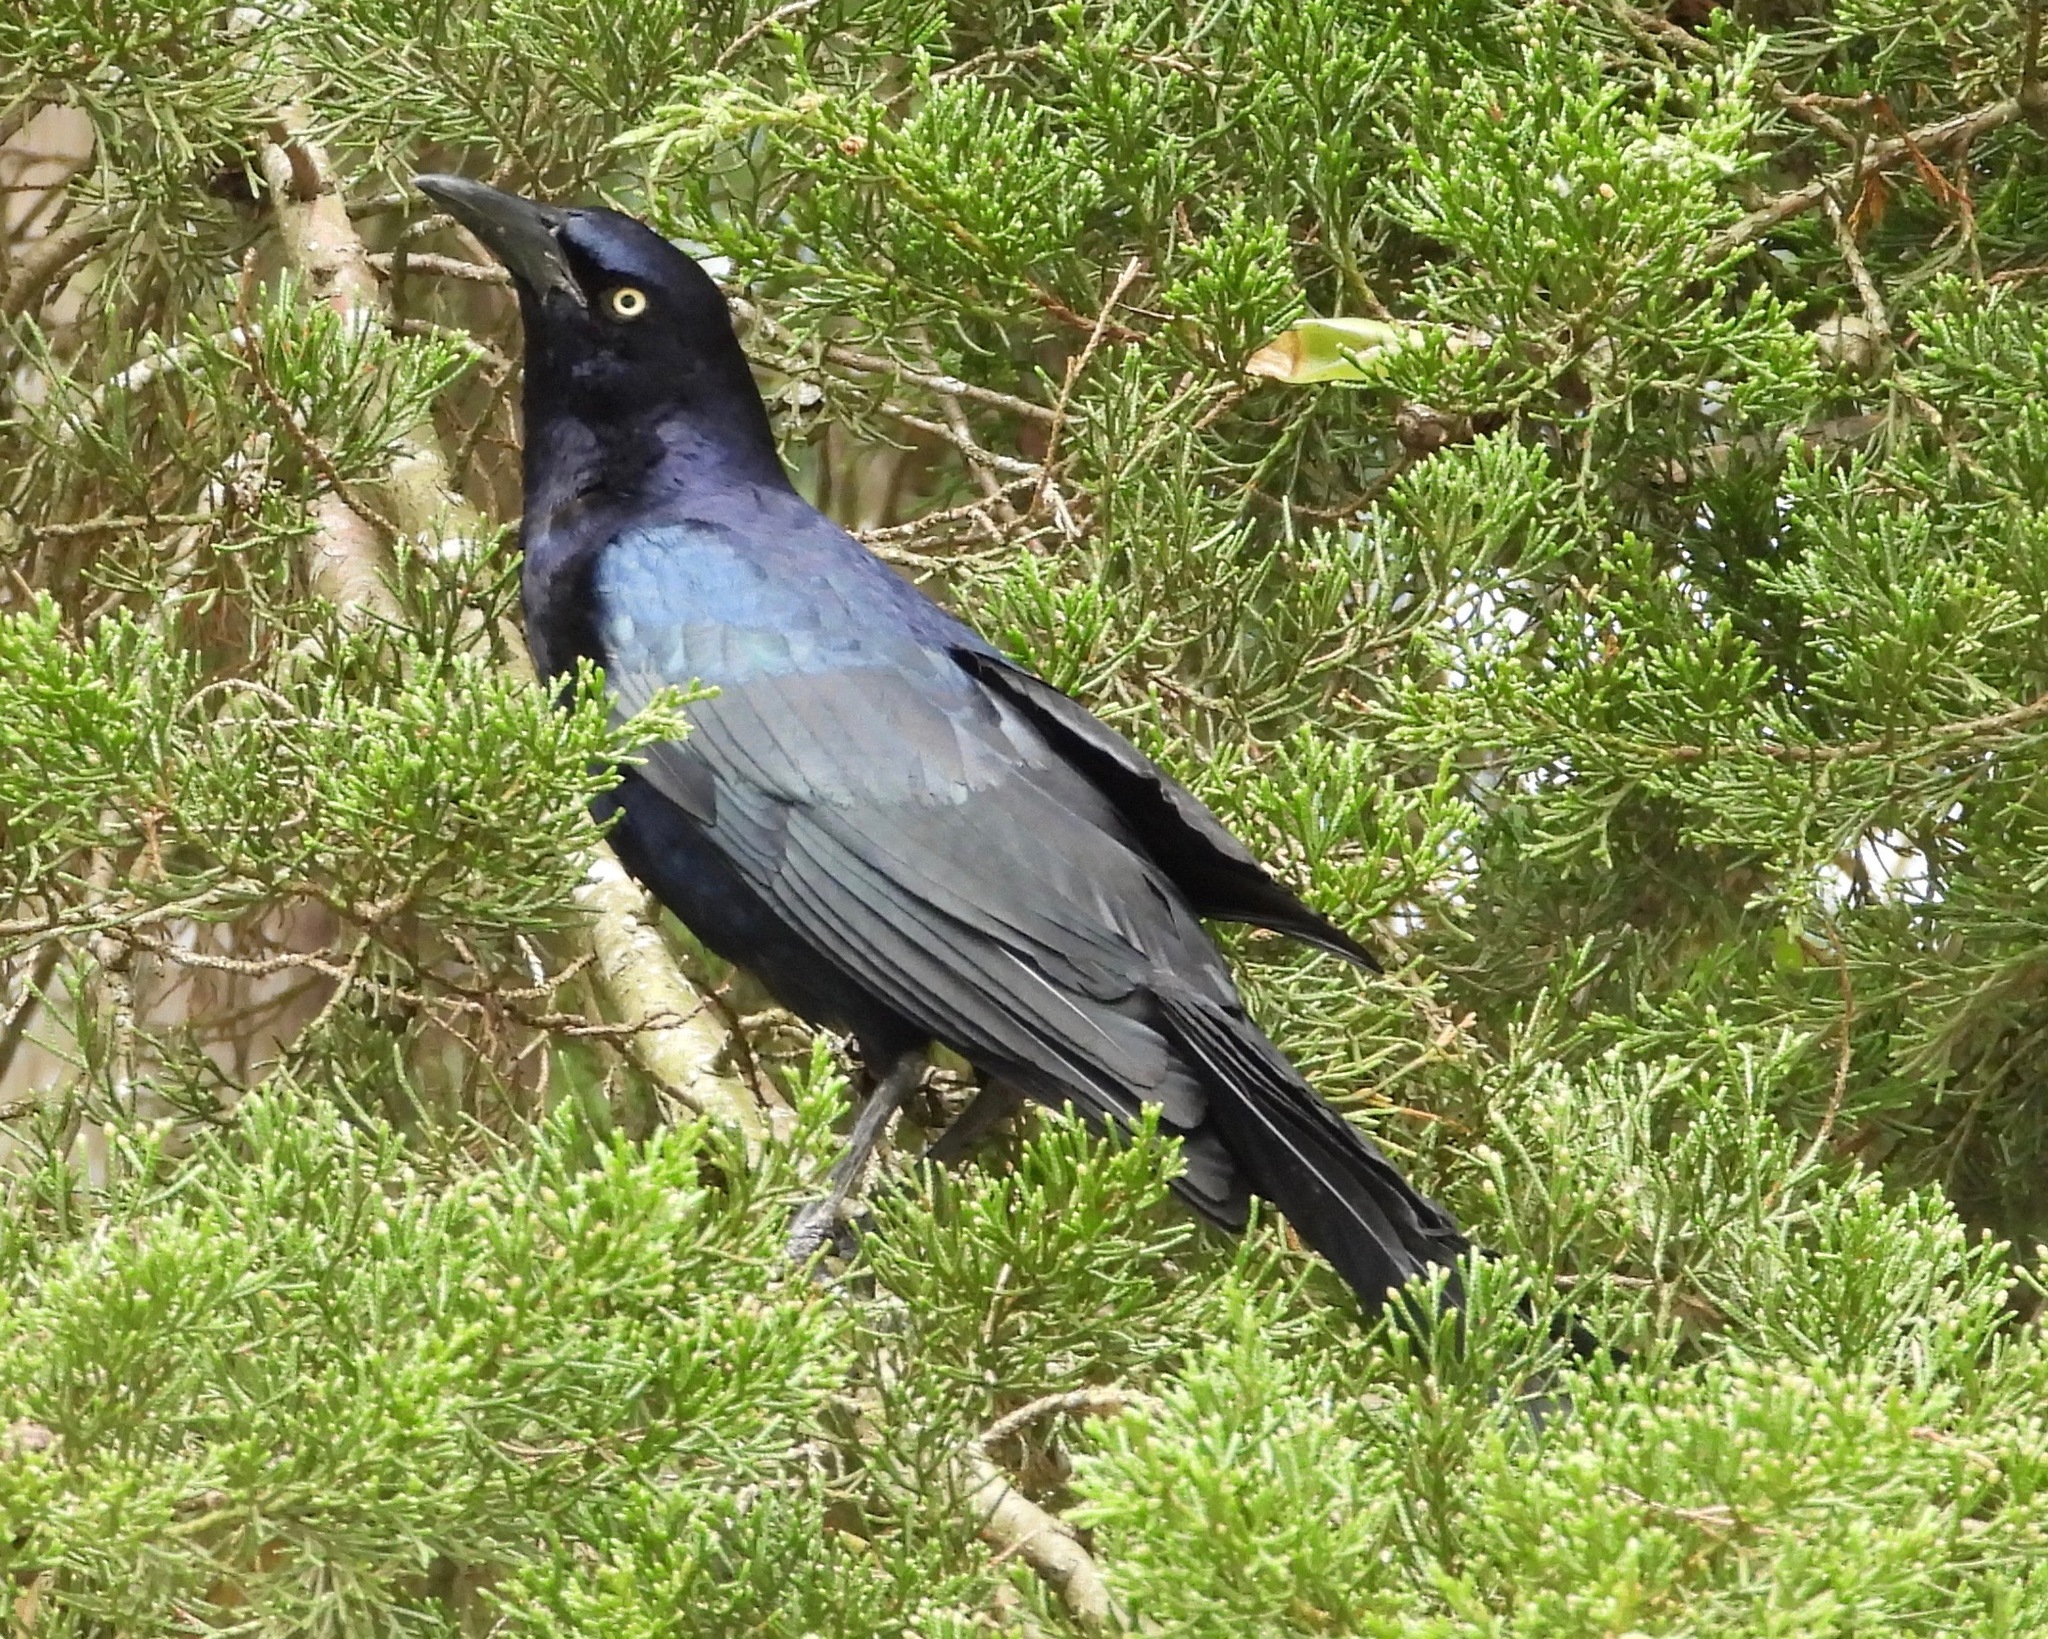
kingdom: Animalia
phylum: Chordata
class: Aves
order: Passeriformes
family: Icteridae
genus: Quiscalus
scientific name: Quiscalus mexicanus
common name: Great-tailed grackle
